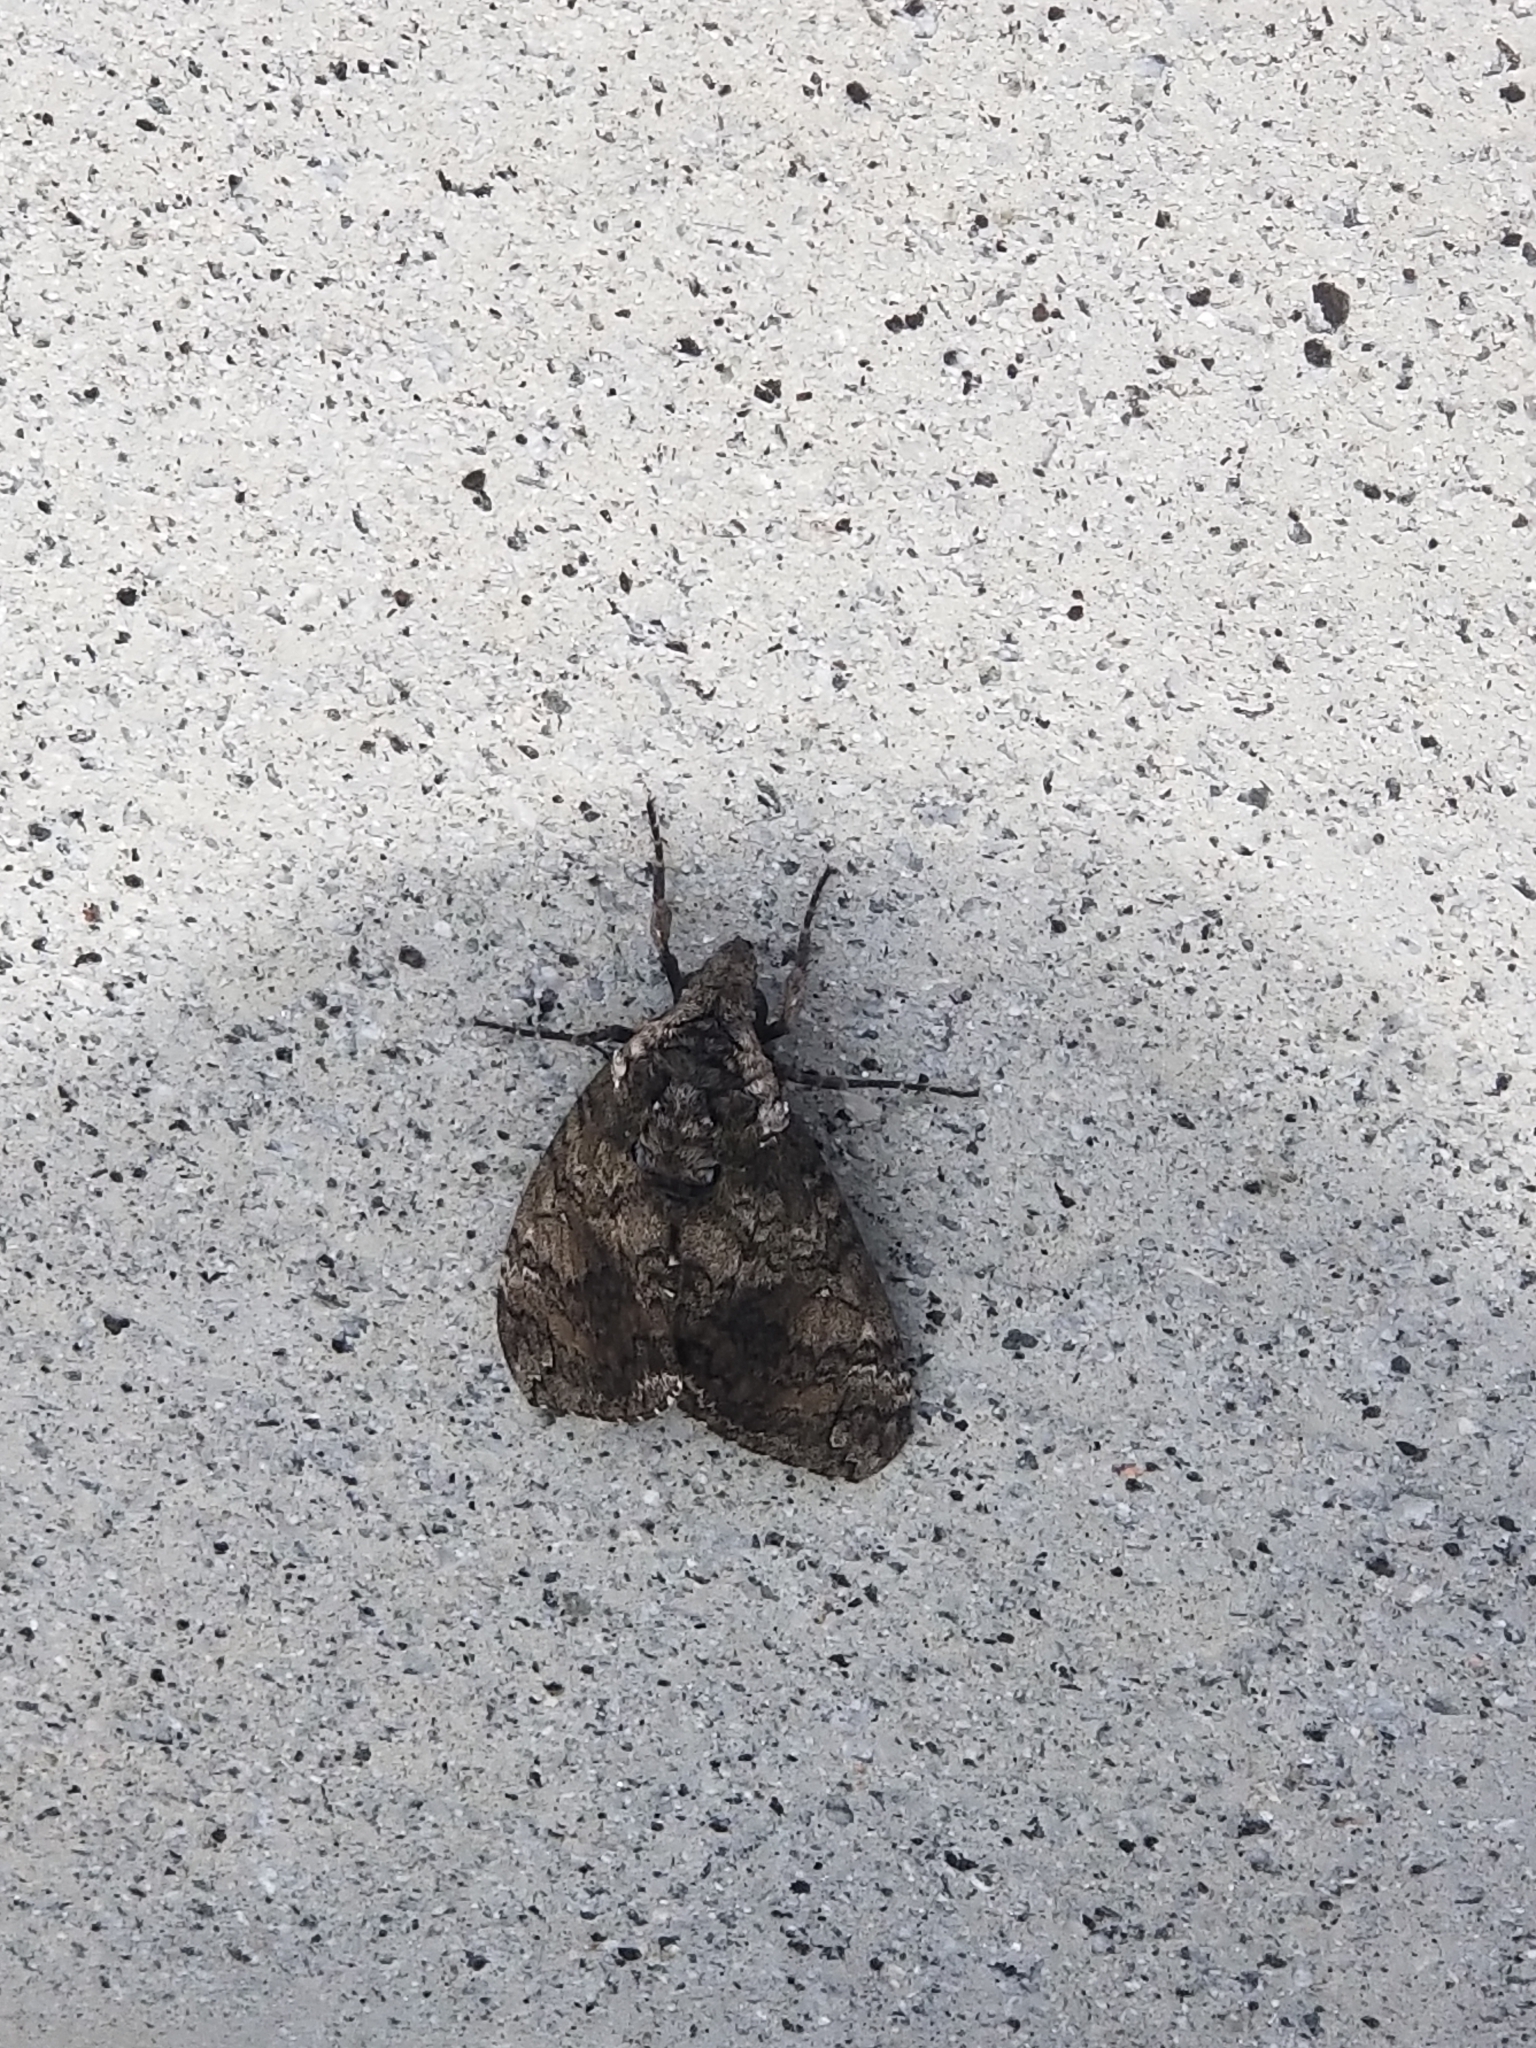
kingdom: Animalia
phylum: Arthropoda
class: Insecta
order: Lepidoptera
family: Sphingidae
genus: Manduca
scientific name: Manduca sexta
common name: Carolina sphinx
